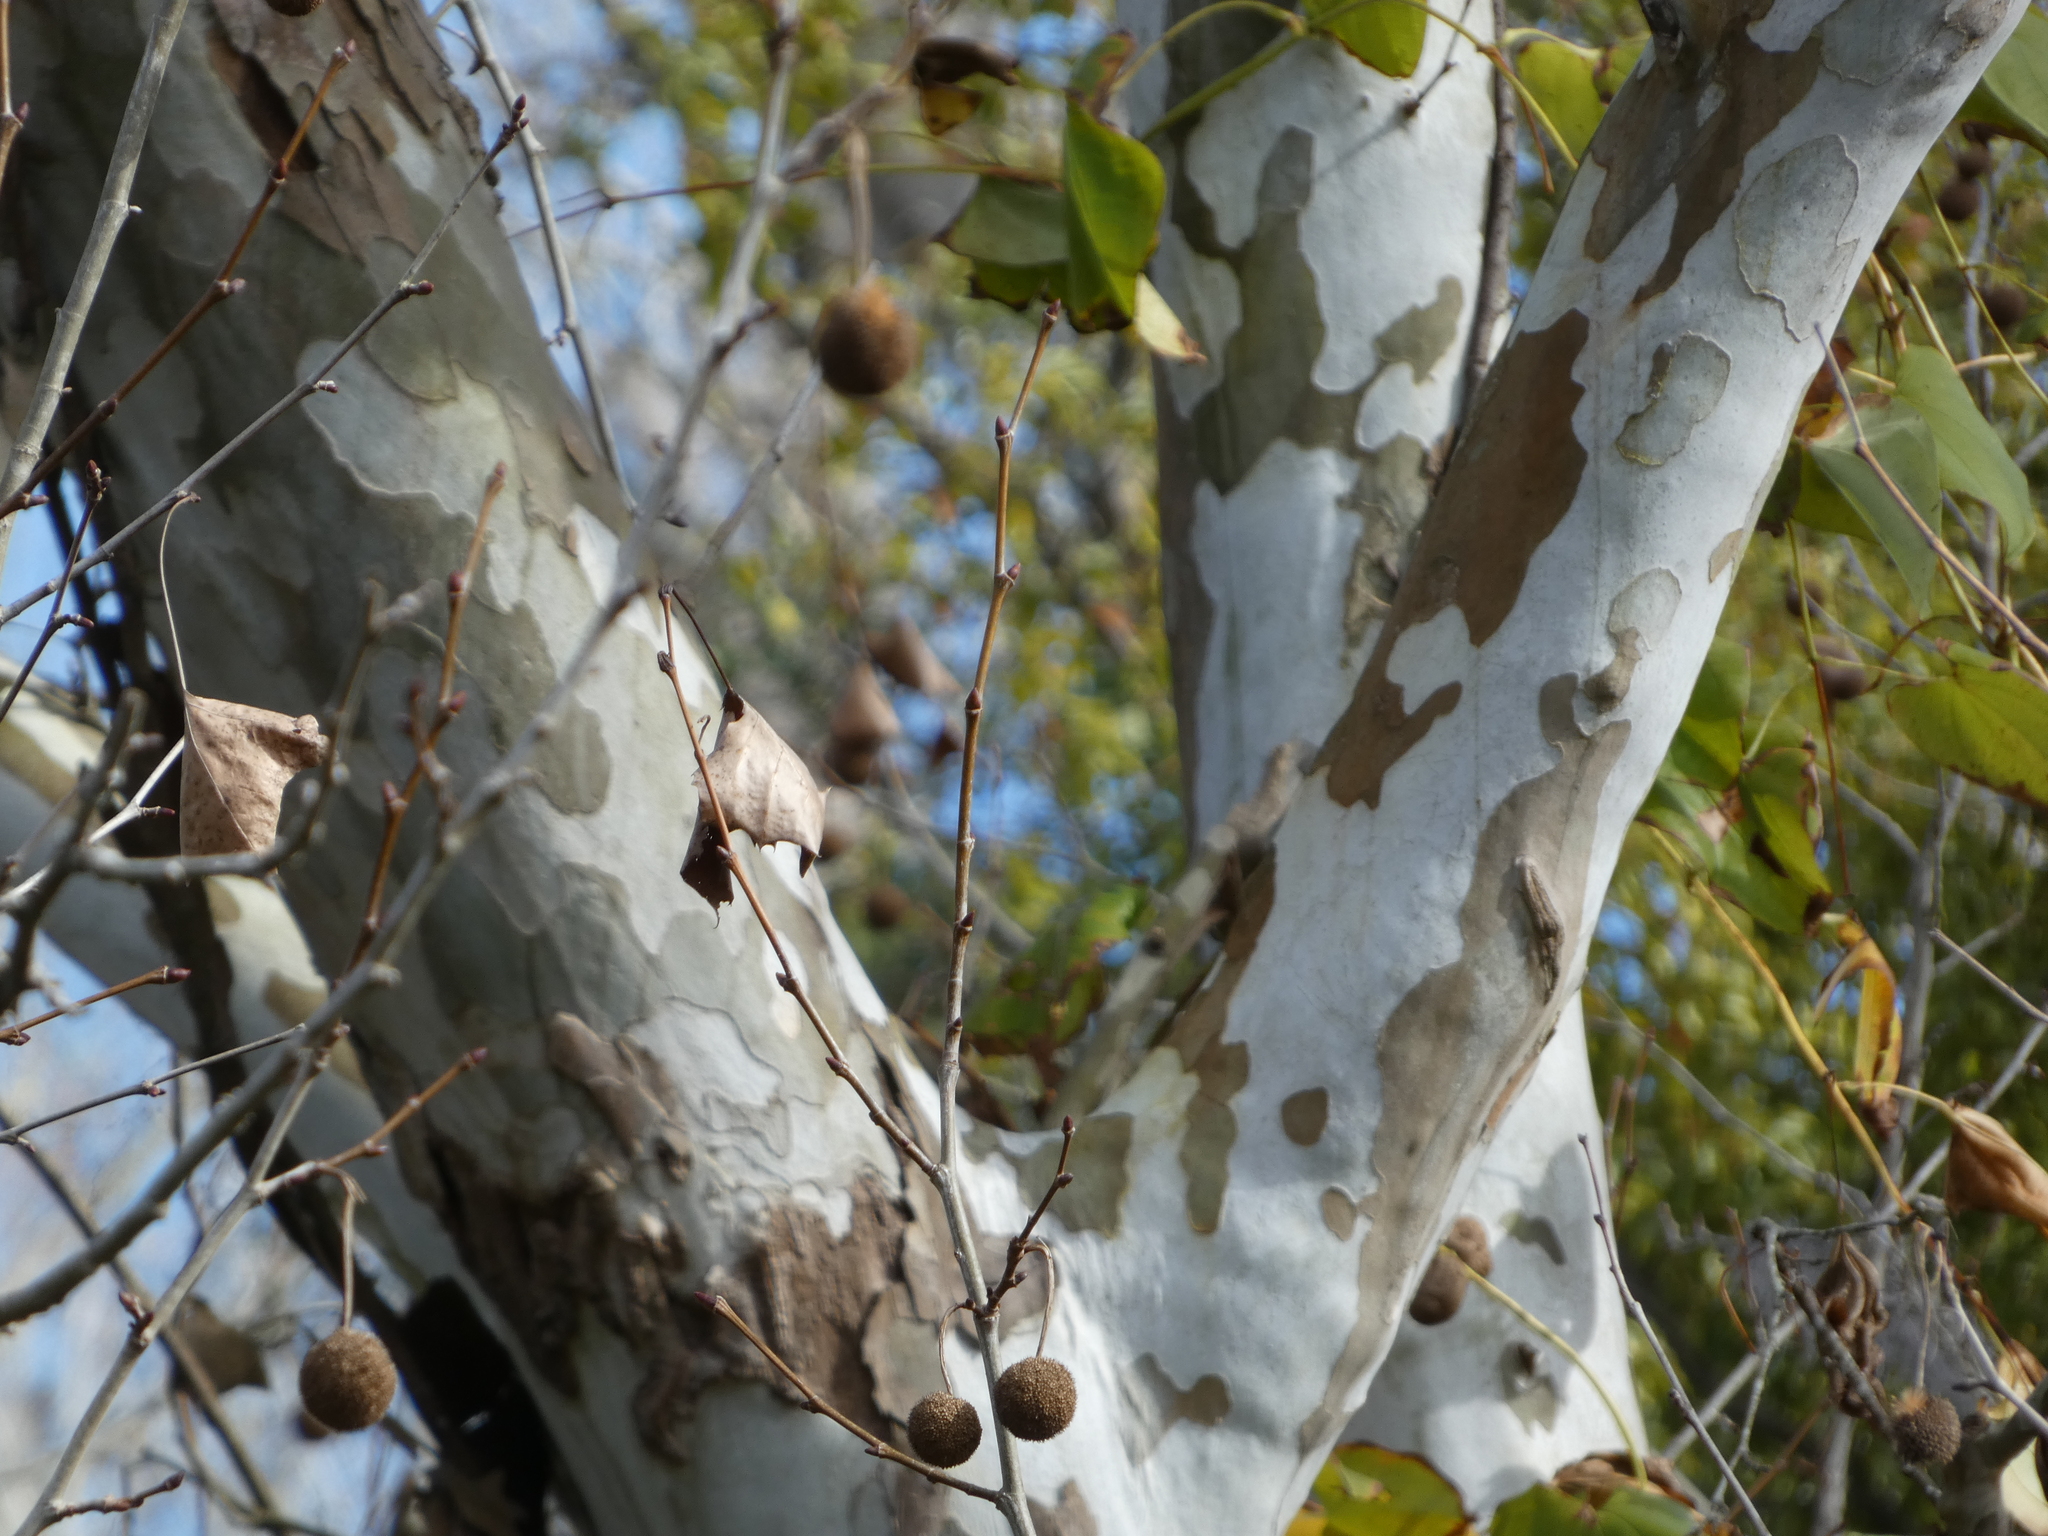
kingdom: Plantae
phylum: Tracheophyta
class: Magnoliopsida
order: Proteales
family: Platanaceae
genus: Platanus
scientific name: Platanus occidentalis
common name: American sycamore
